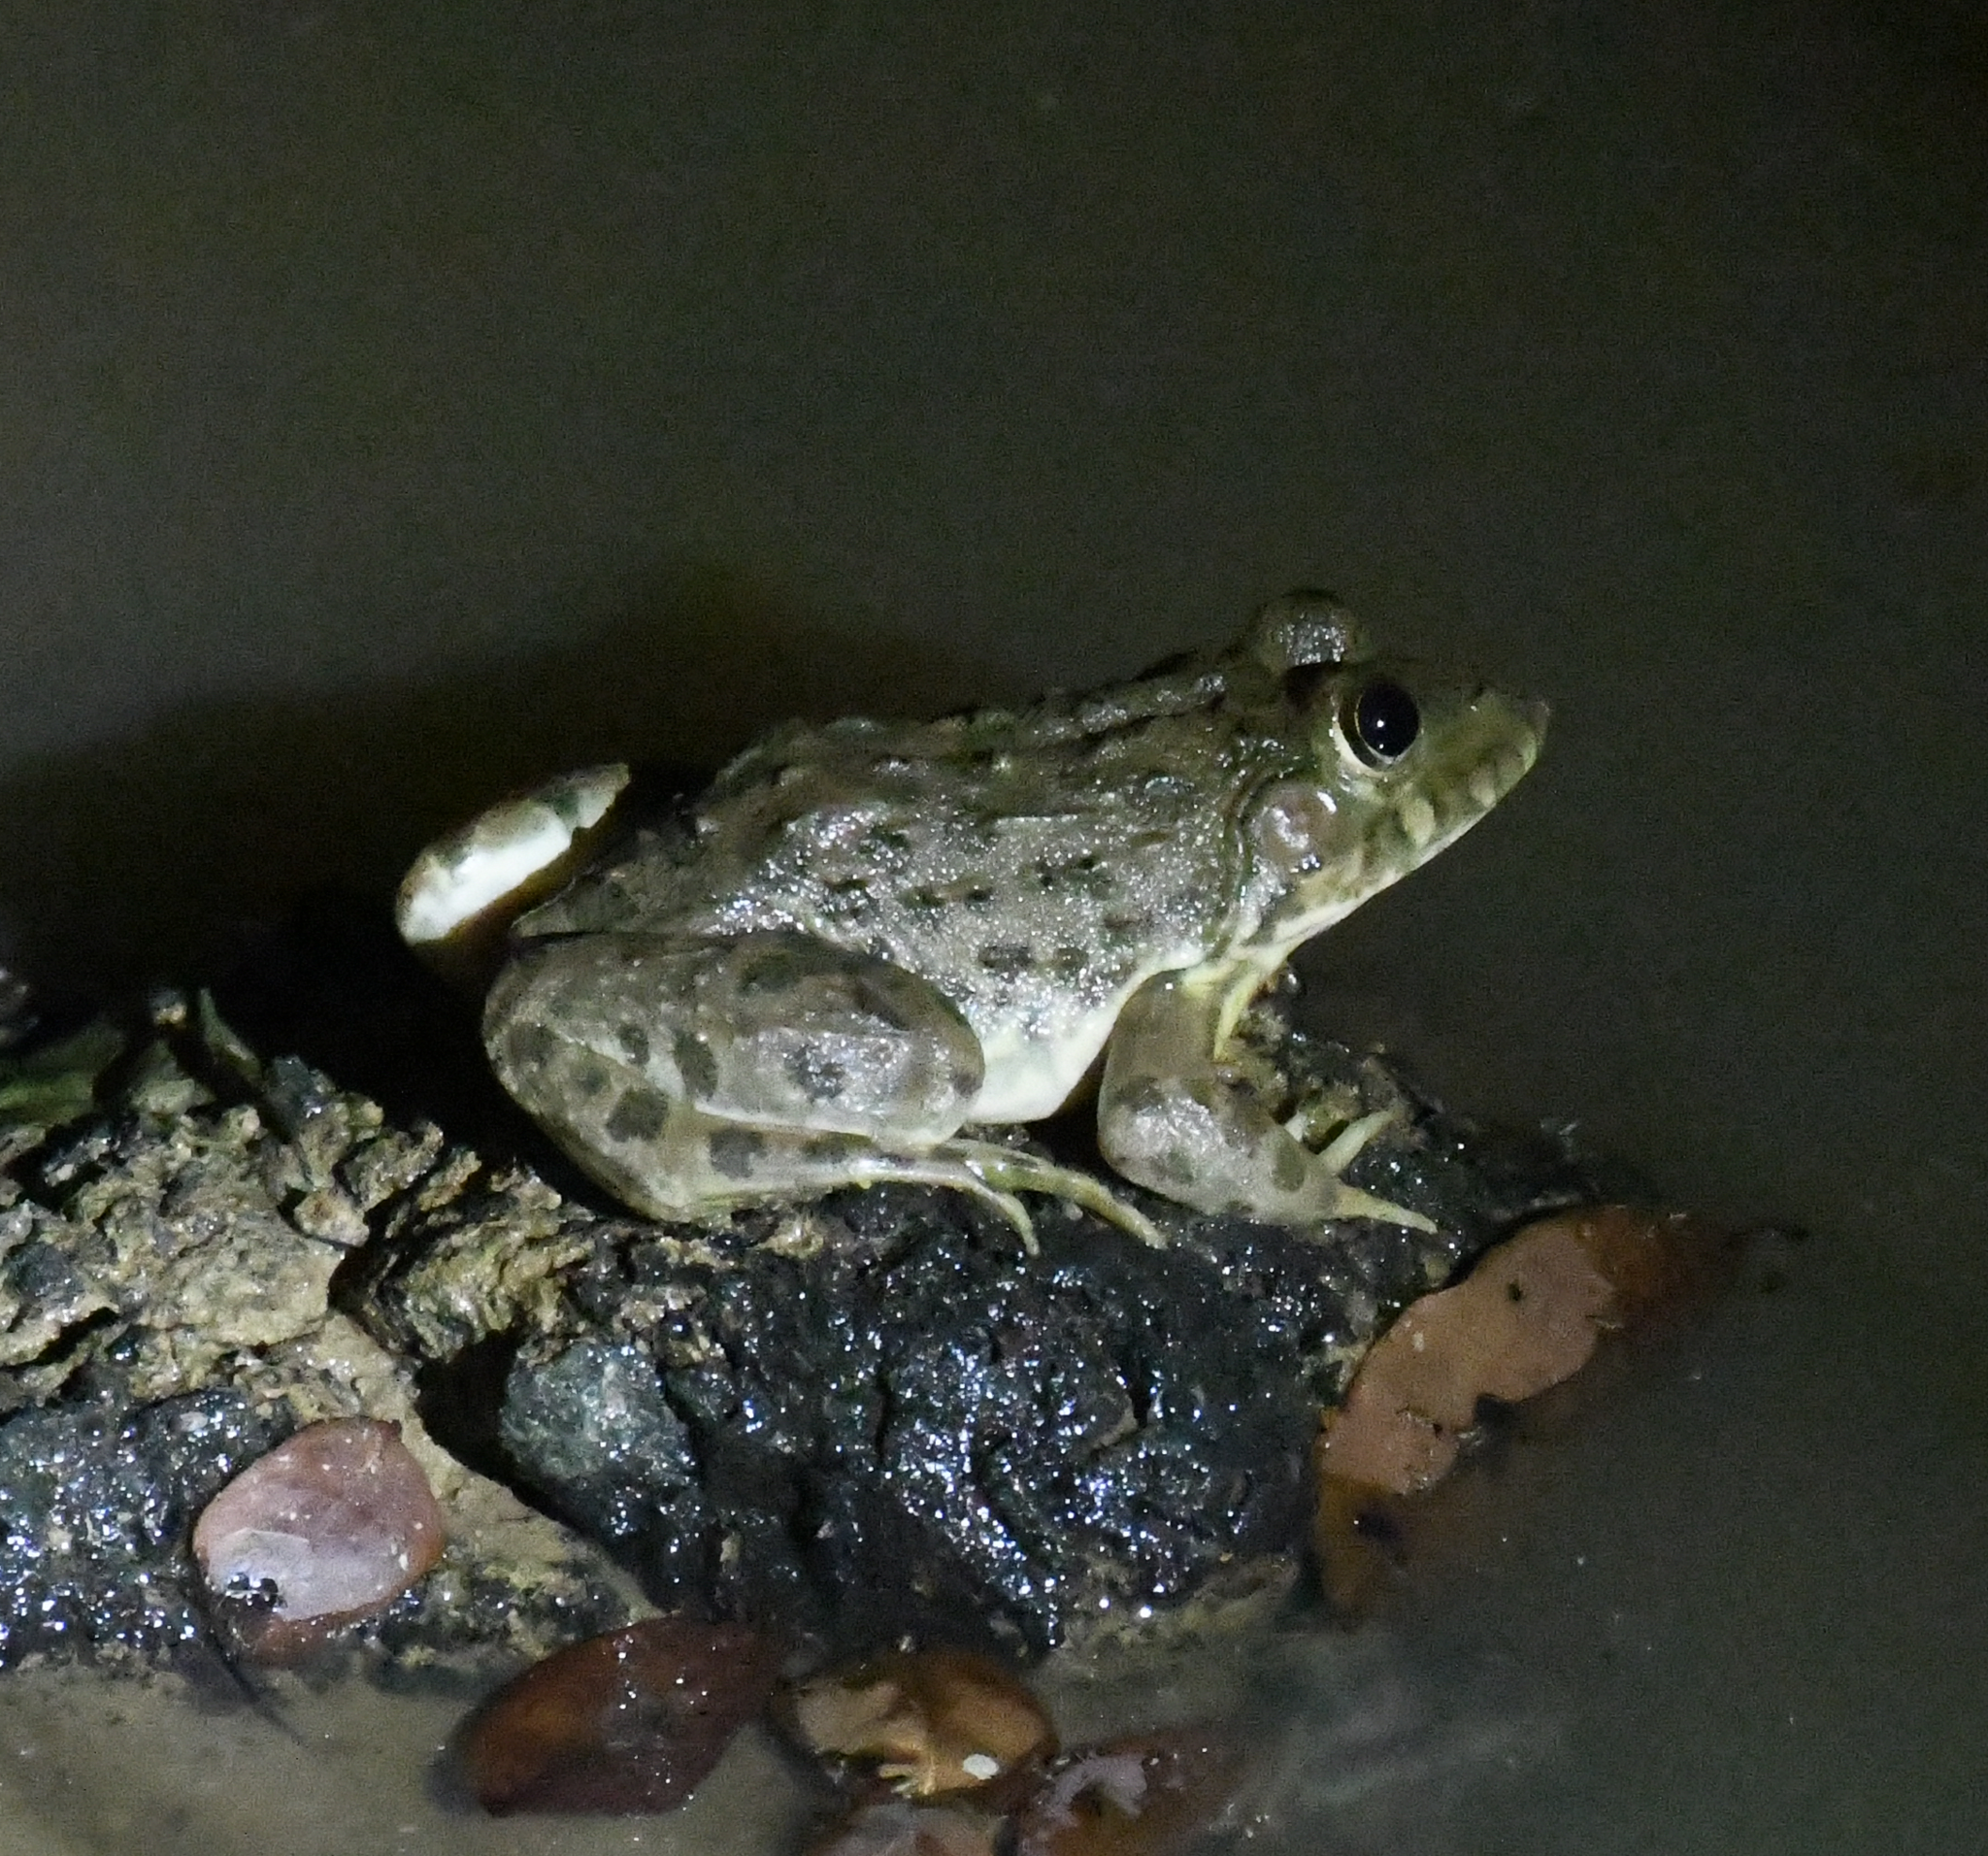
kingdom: Animalia
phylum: Chordata
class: Amphibia
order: Anura
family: Dicroglossidae
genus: Hoplobatrachus
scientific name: Hoplobatrachus occipitalis
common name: Eastern groove-crowned bullfrog
